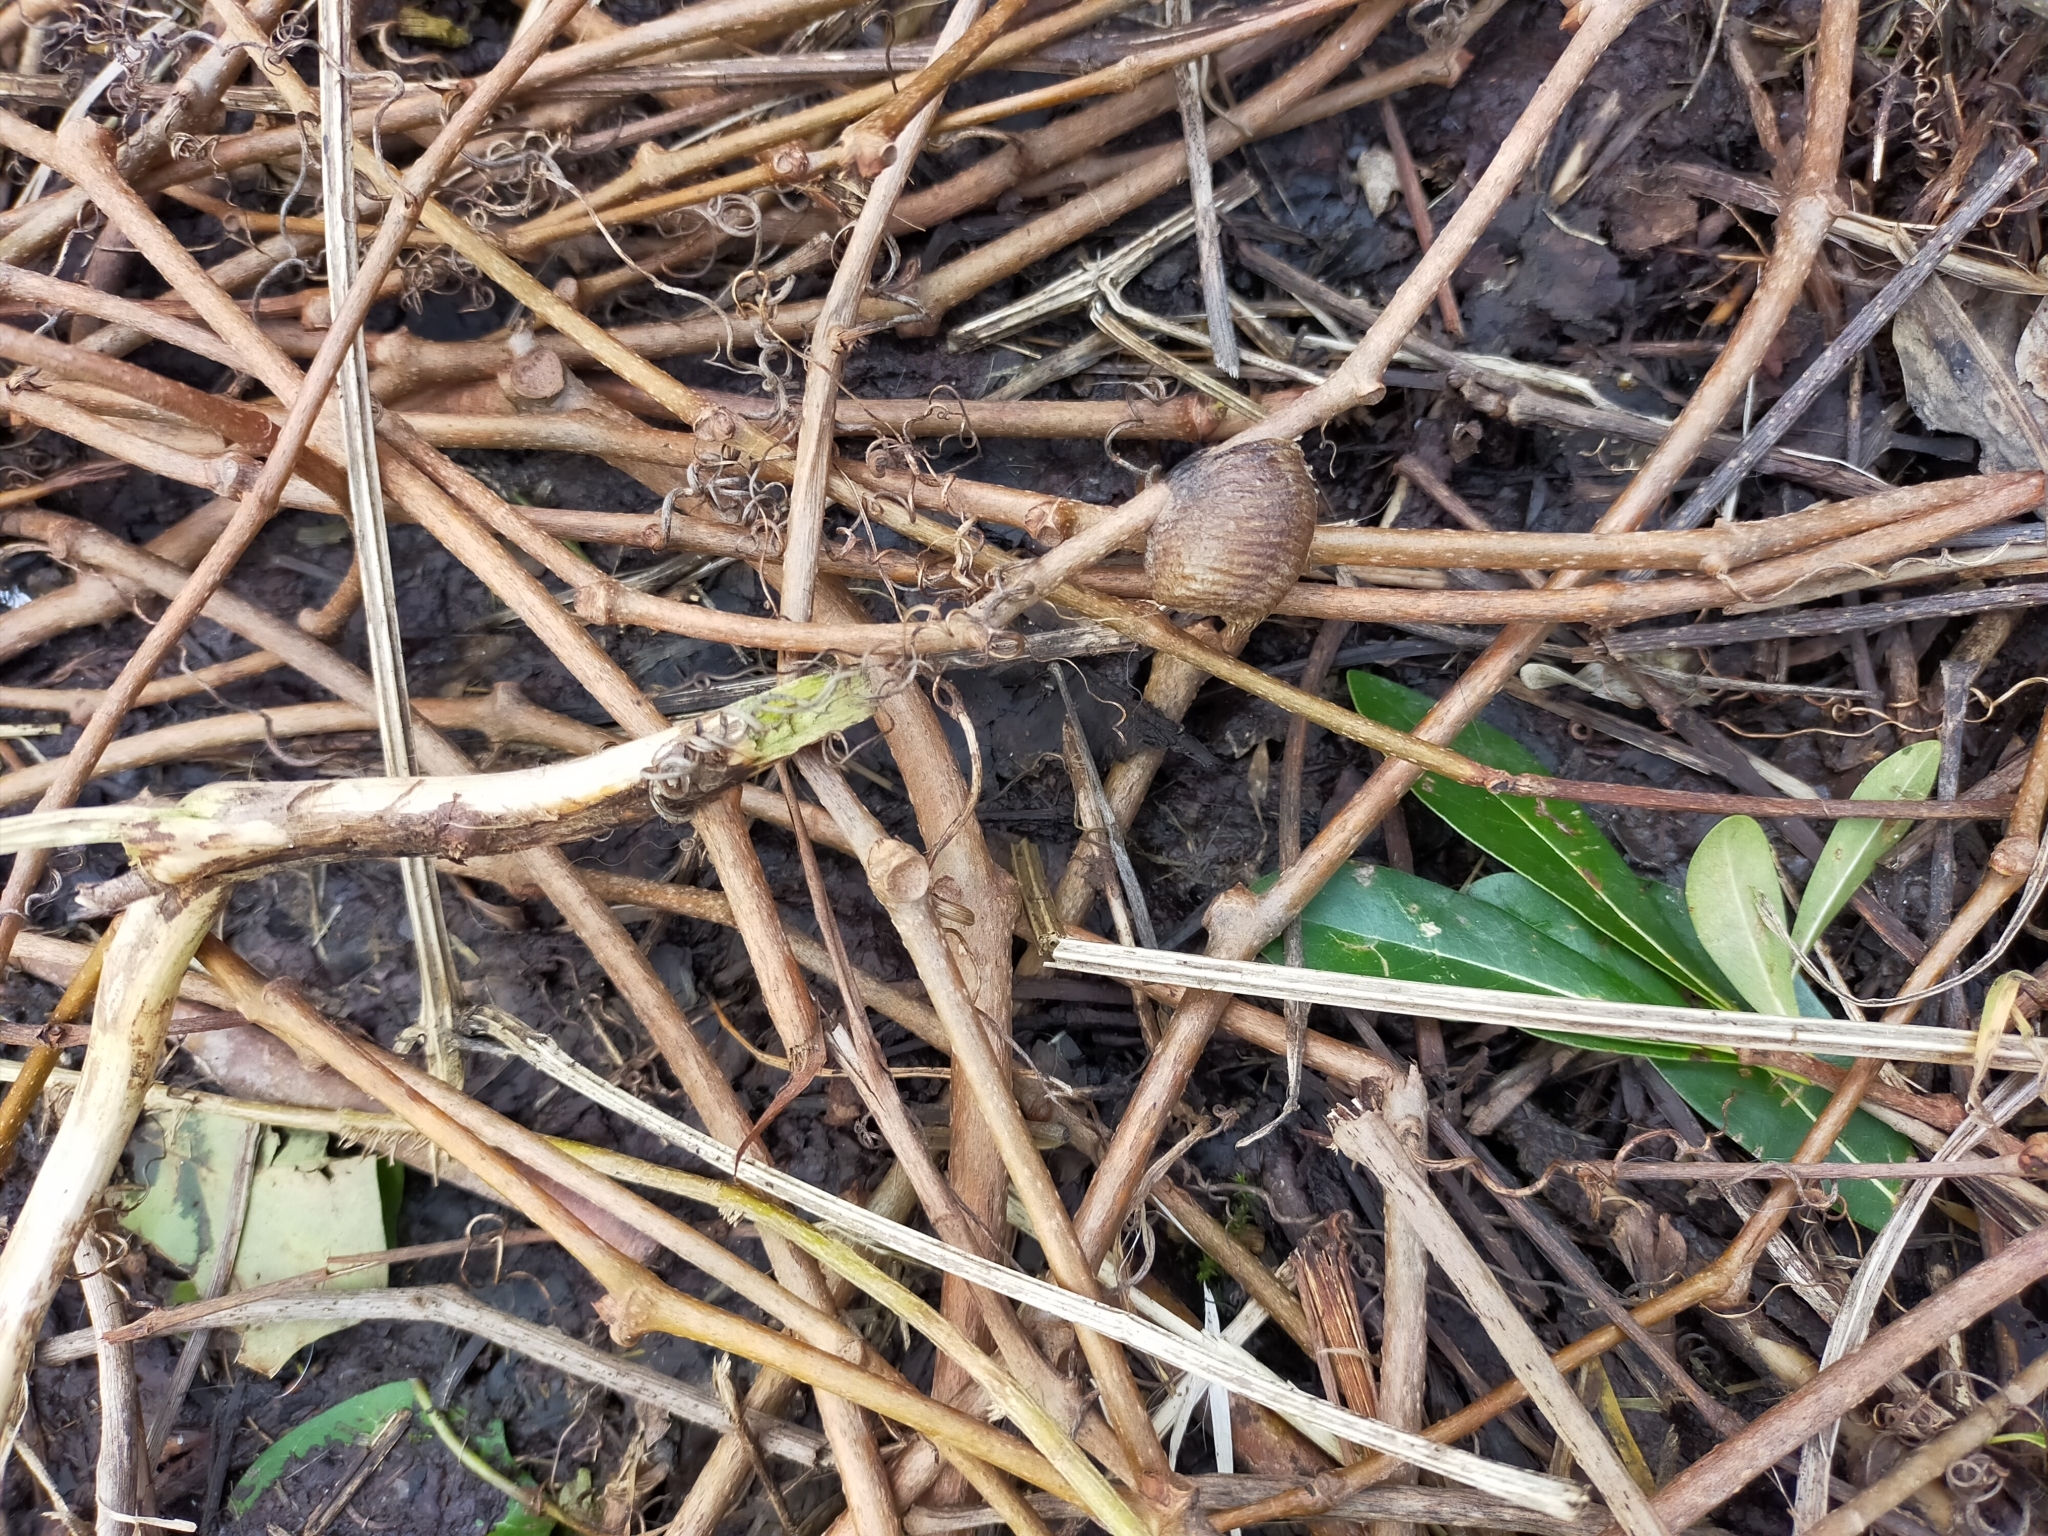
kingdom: Animalia
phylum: Arthropoda
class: Insecta
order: Mantodea
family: Mantidae
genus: Hierodula
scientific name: Hierodula transcaucasica
